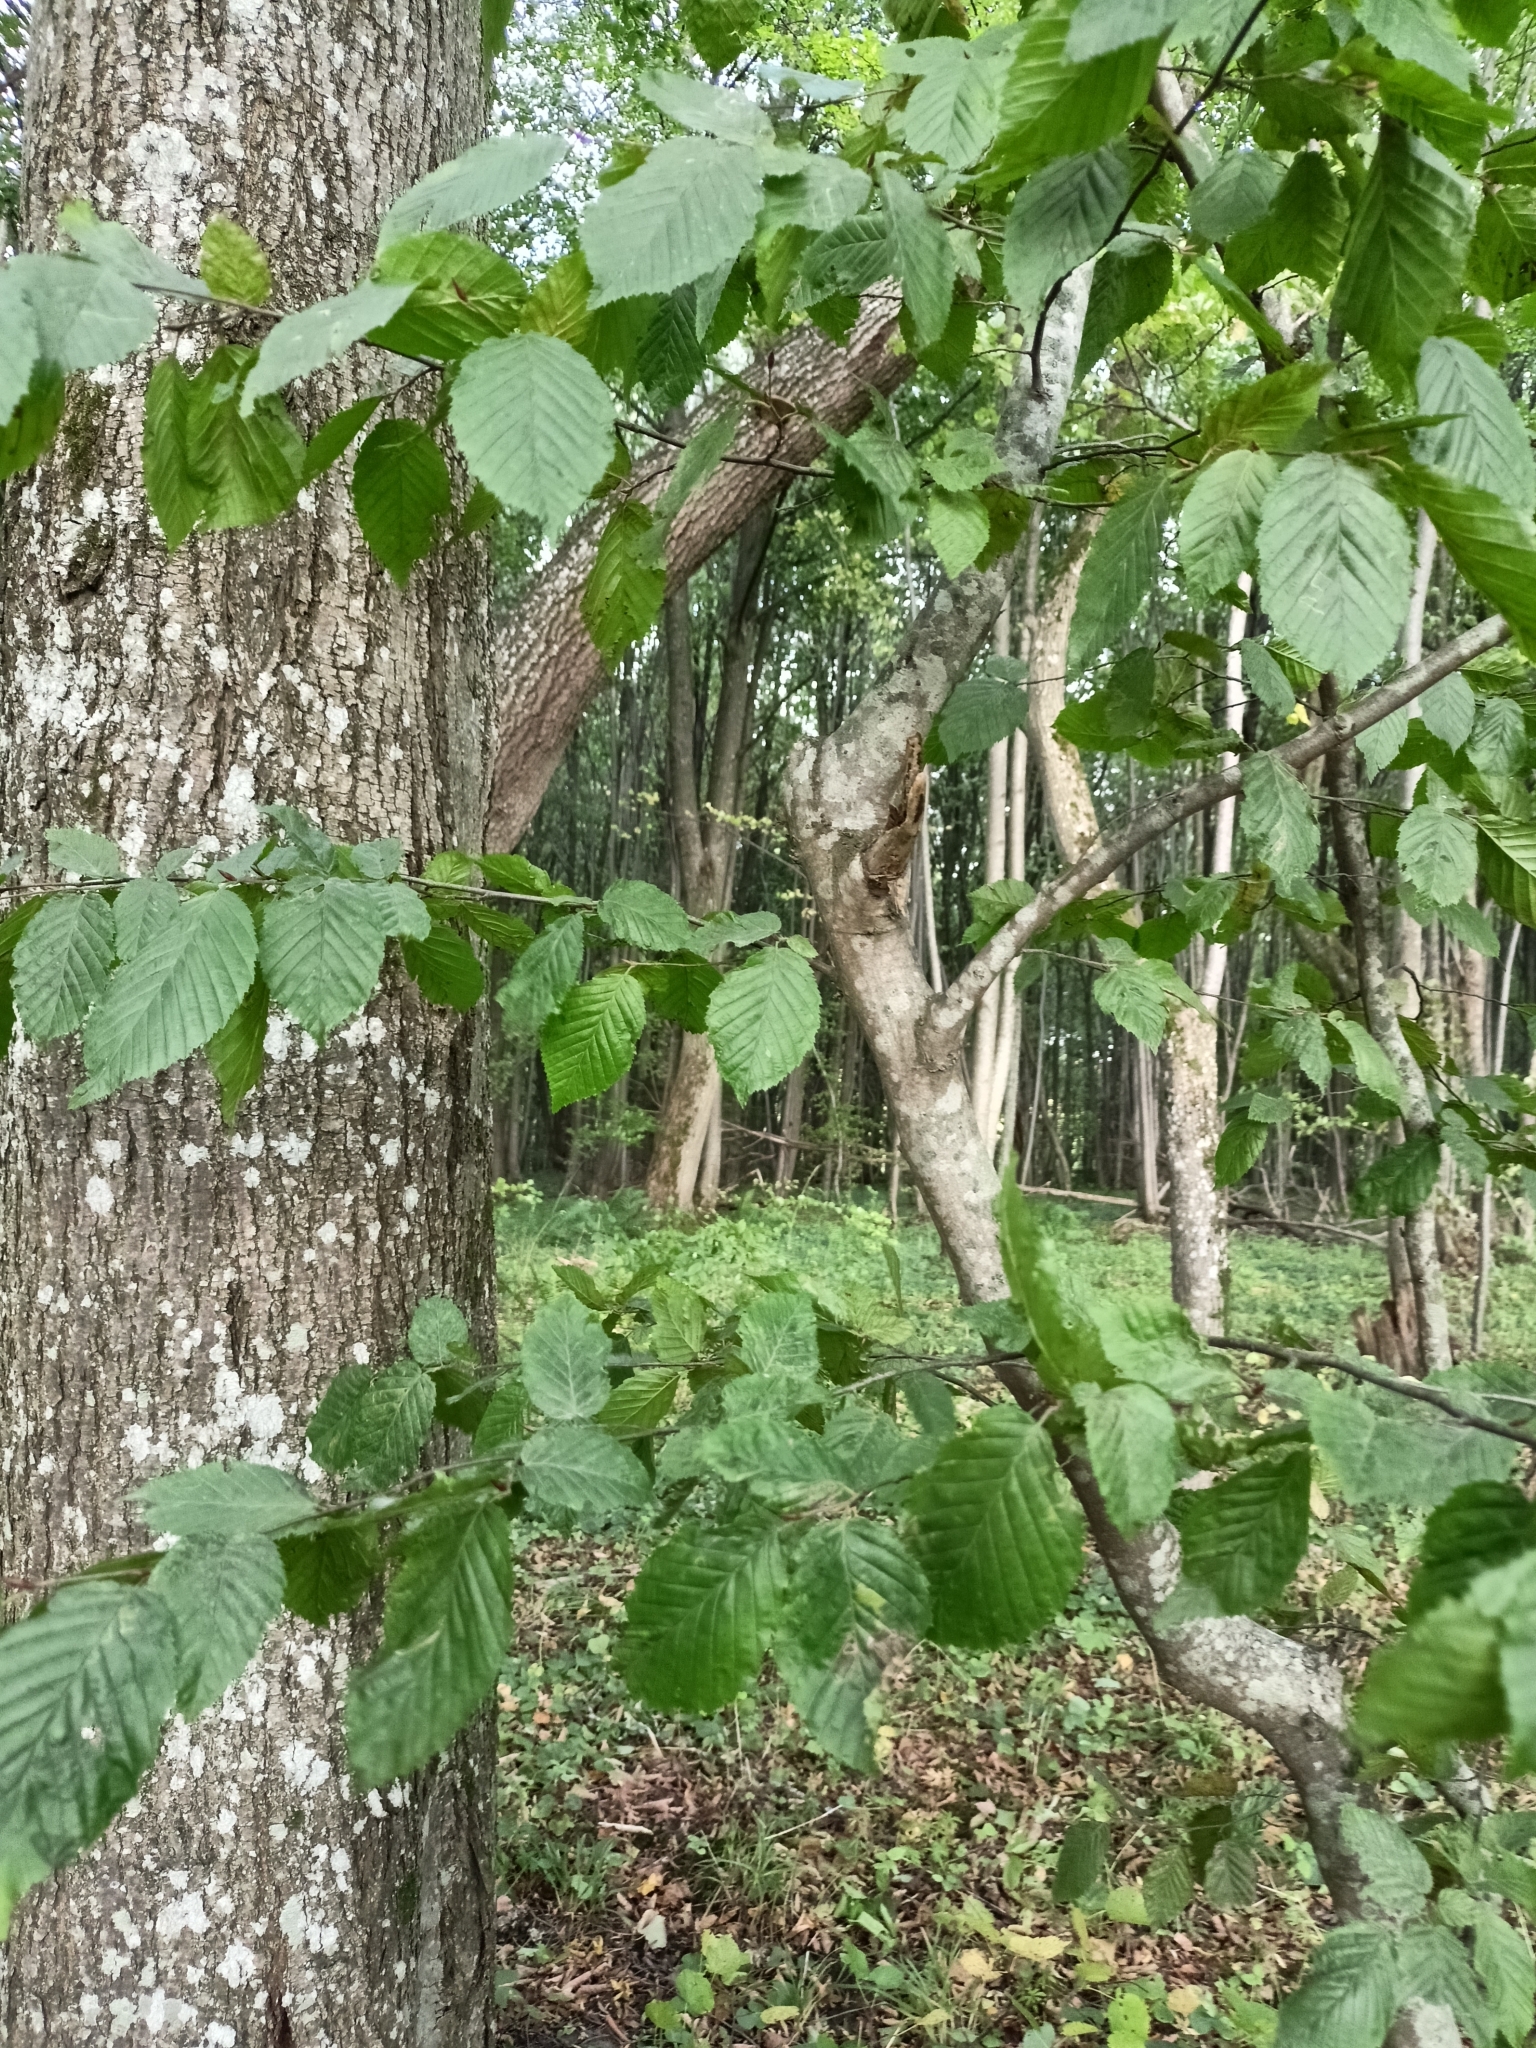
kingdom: Plantae
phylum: Tracheophyta
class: Magnoliopsida
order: Fagales
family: Betulaceae
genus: Carpinus
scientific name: Carpinus betulus
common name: Hornbeam
